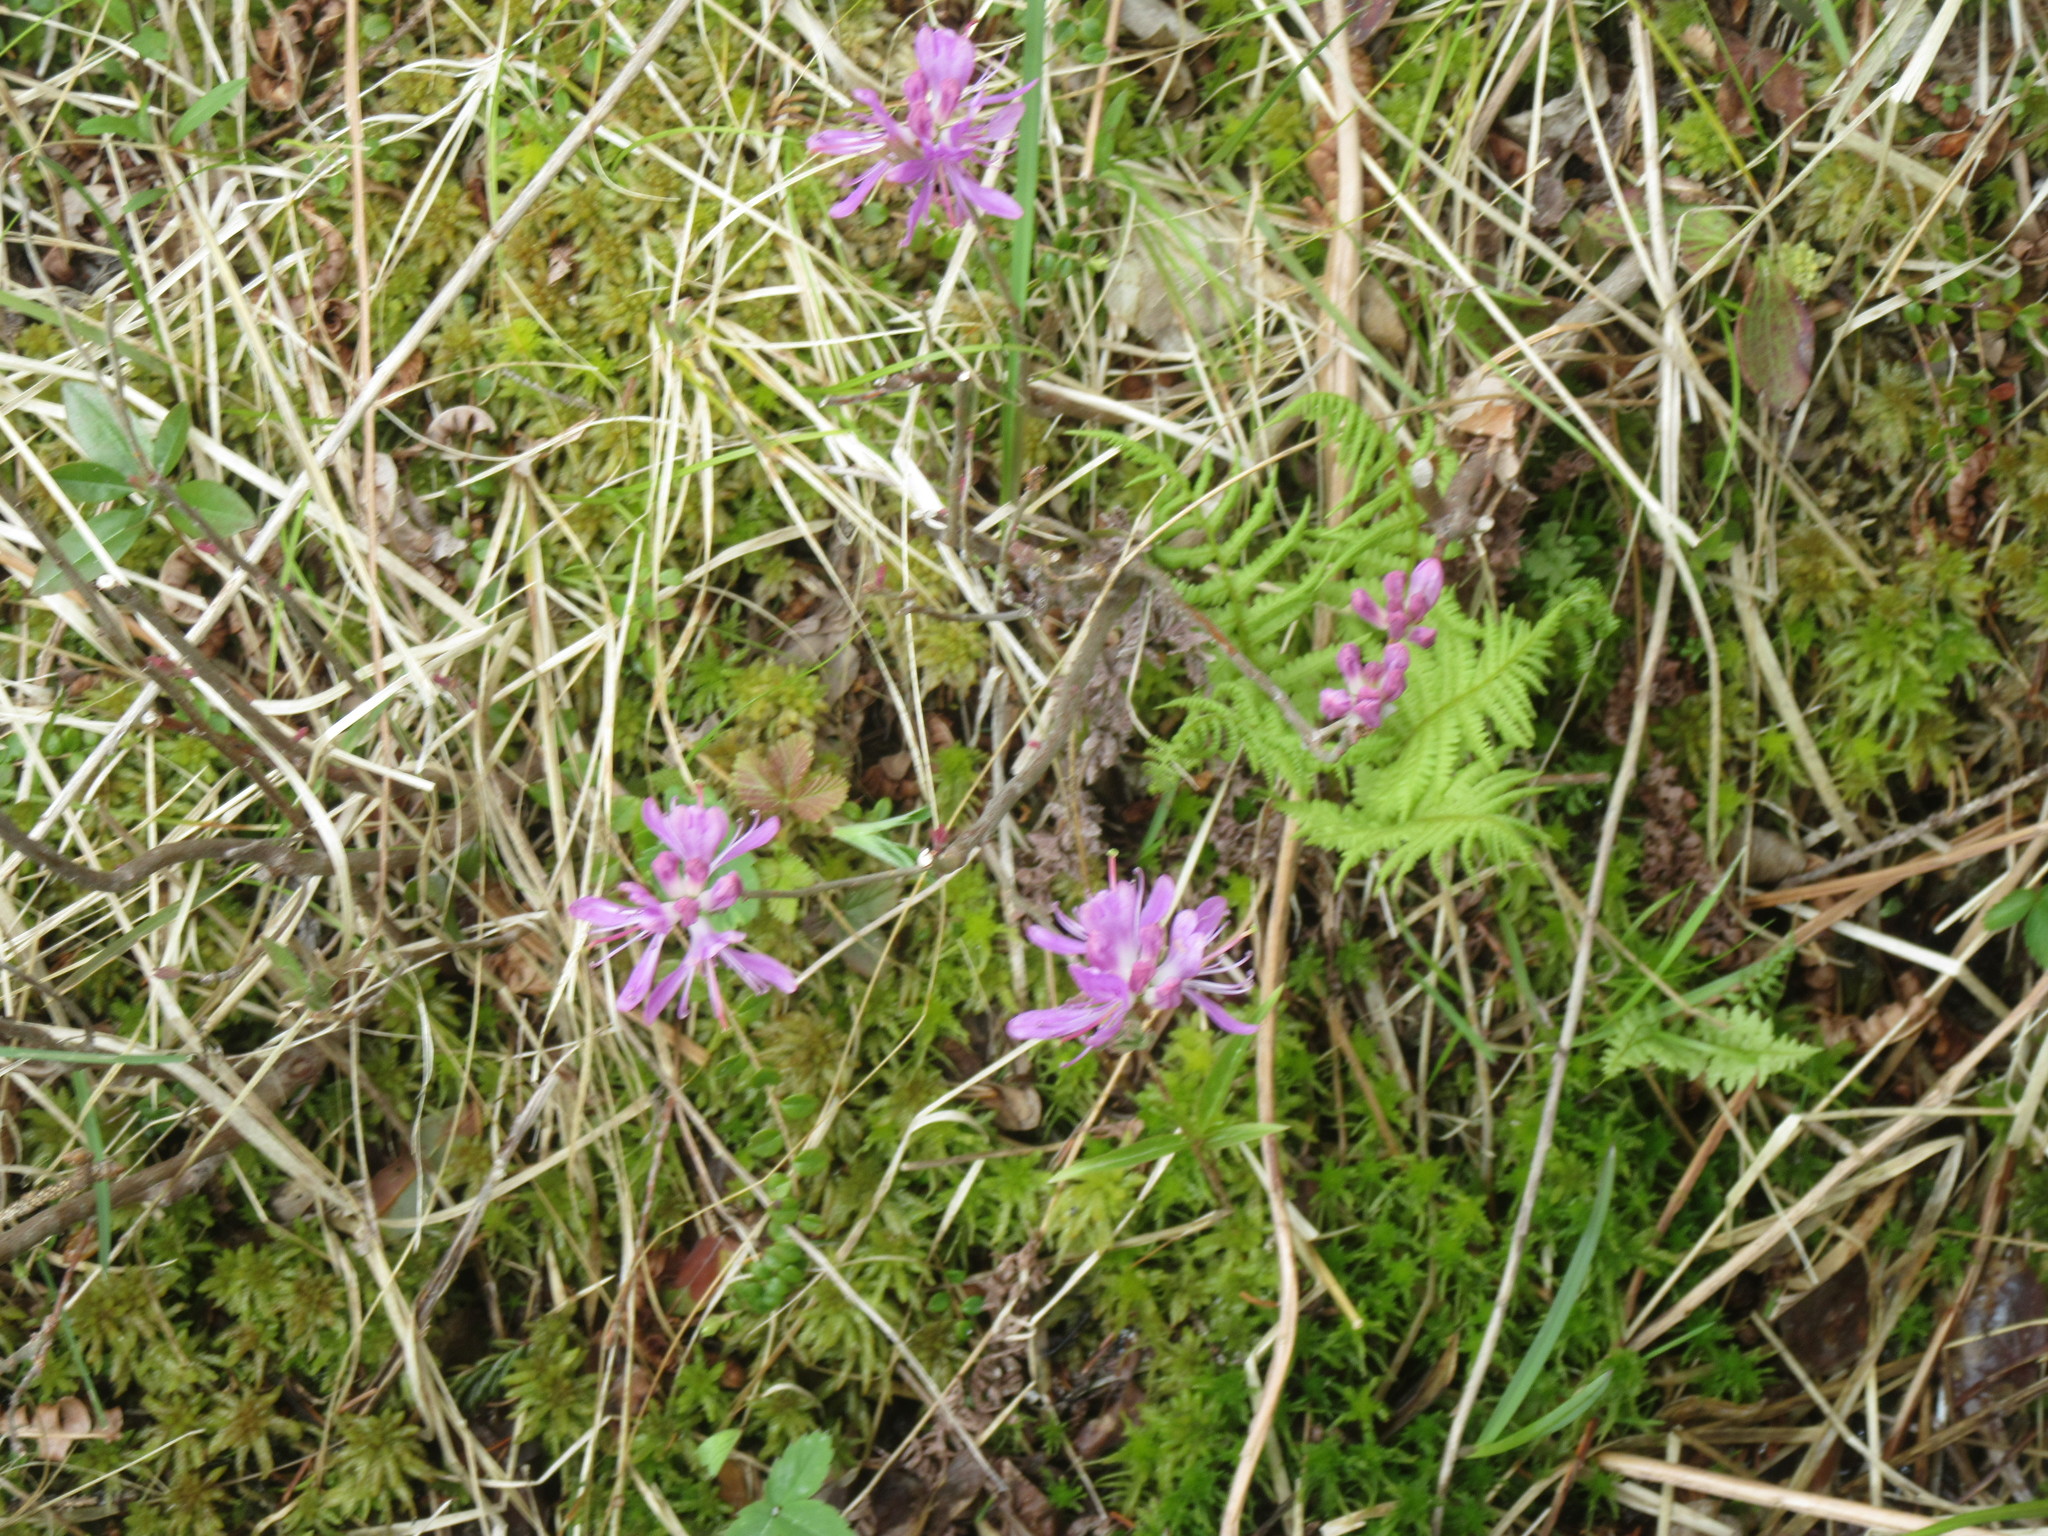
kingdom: Plantae
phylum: Tracheophyta
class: Magnoliopsida
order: Ericales
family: Ericaceae
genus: Rhododendron
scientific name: Rhododendron canadense
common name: Rhodora
